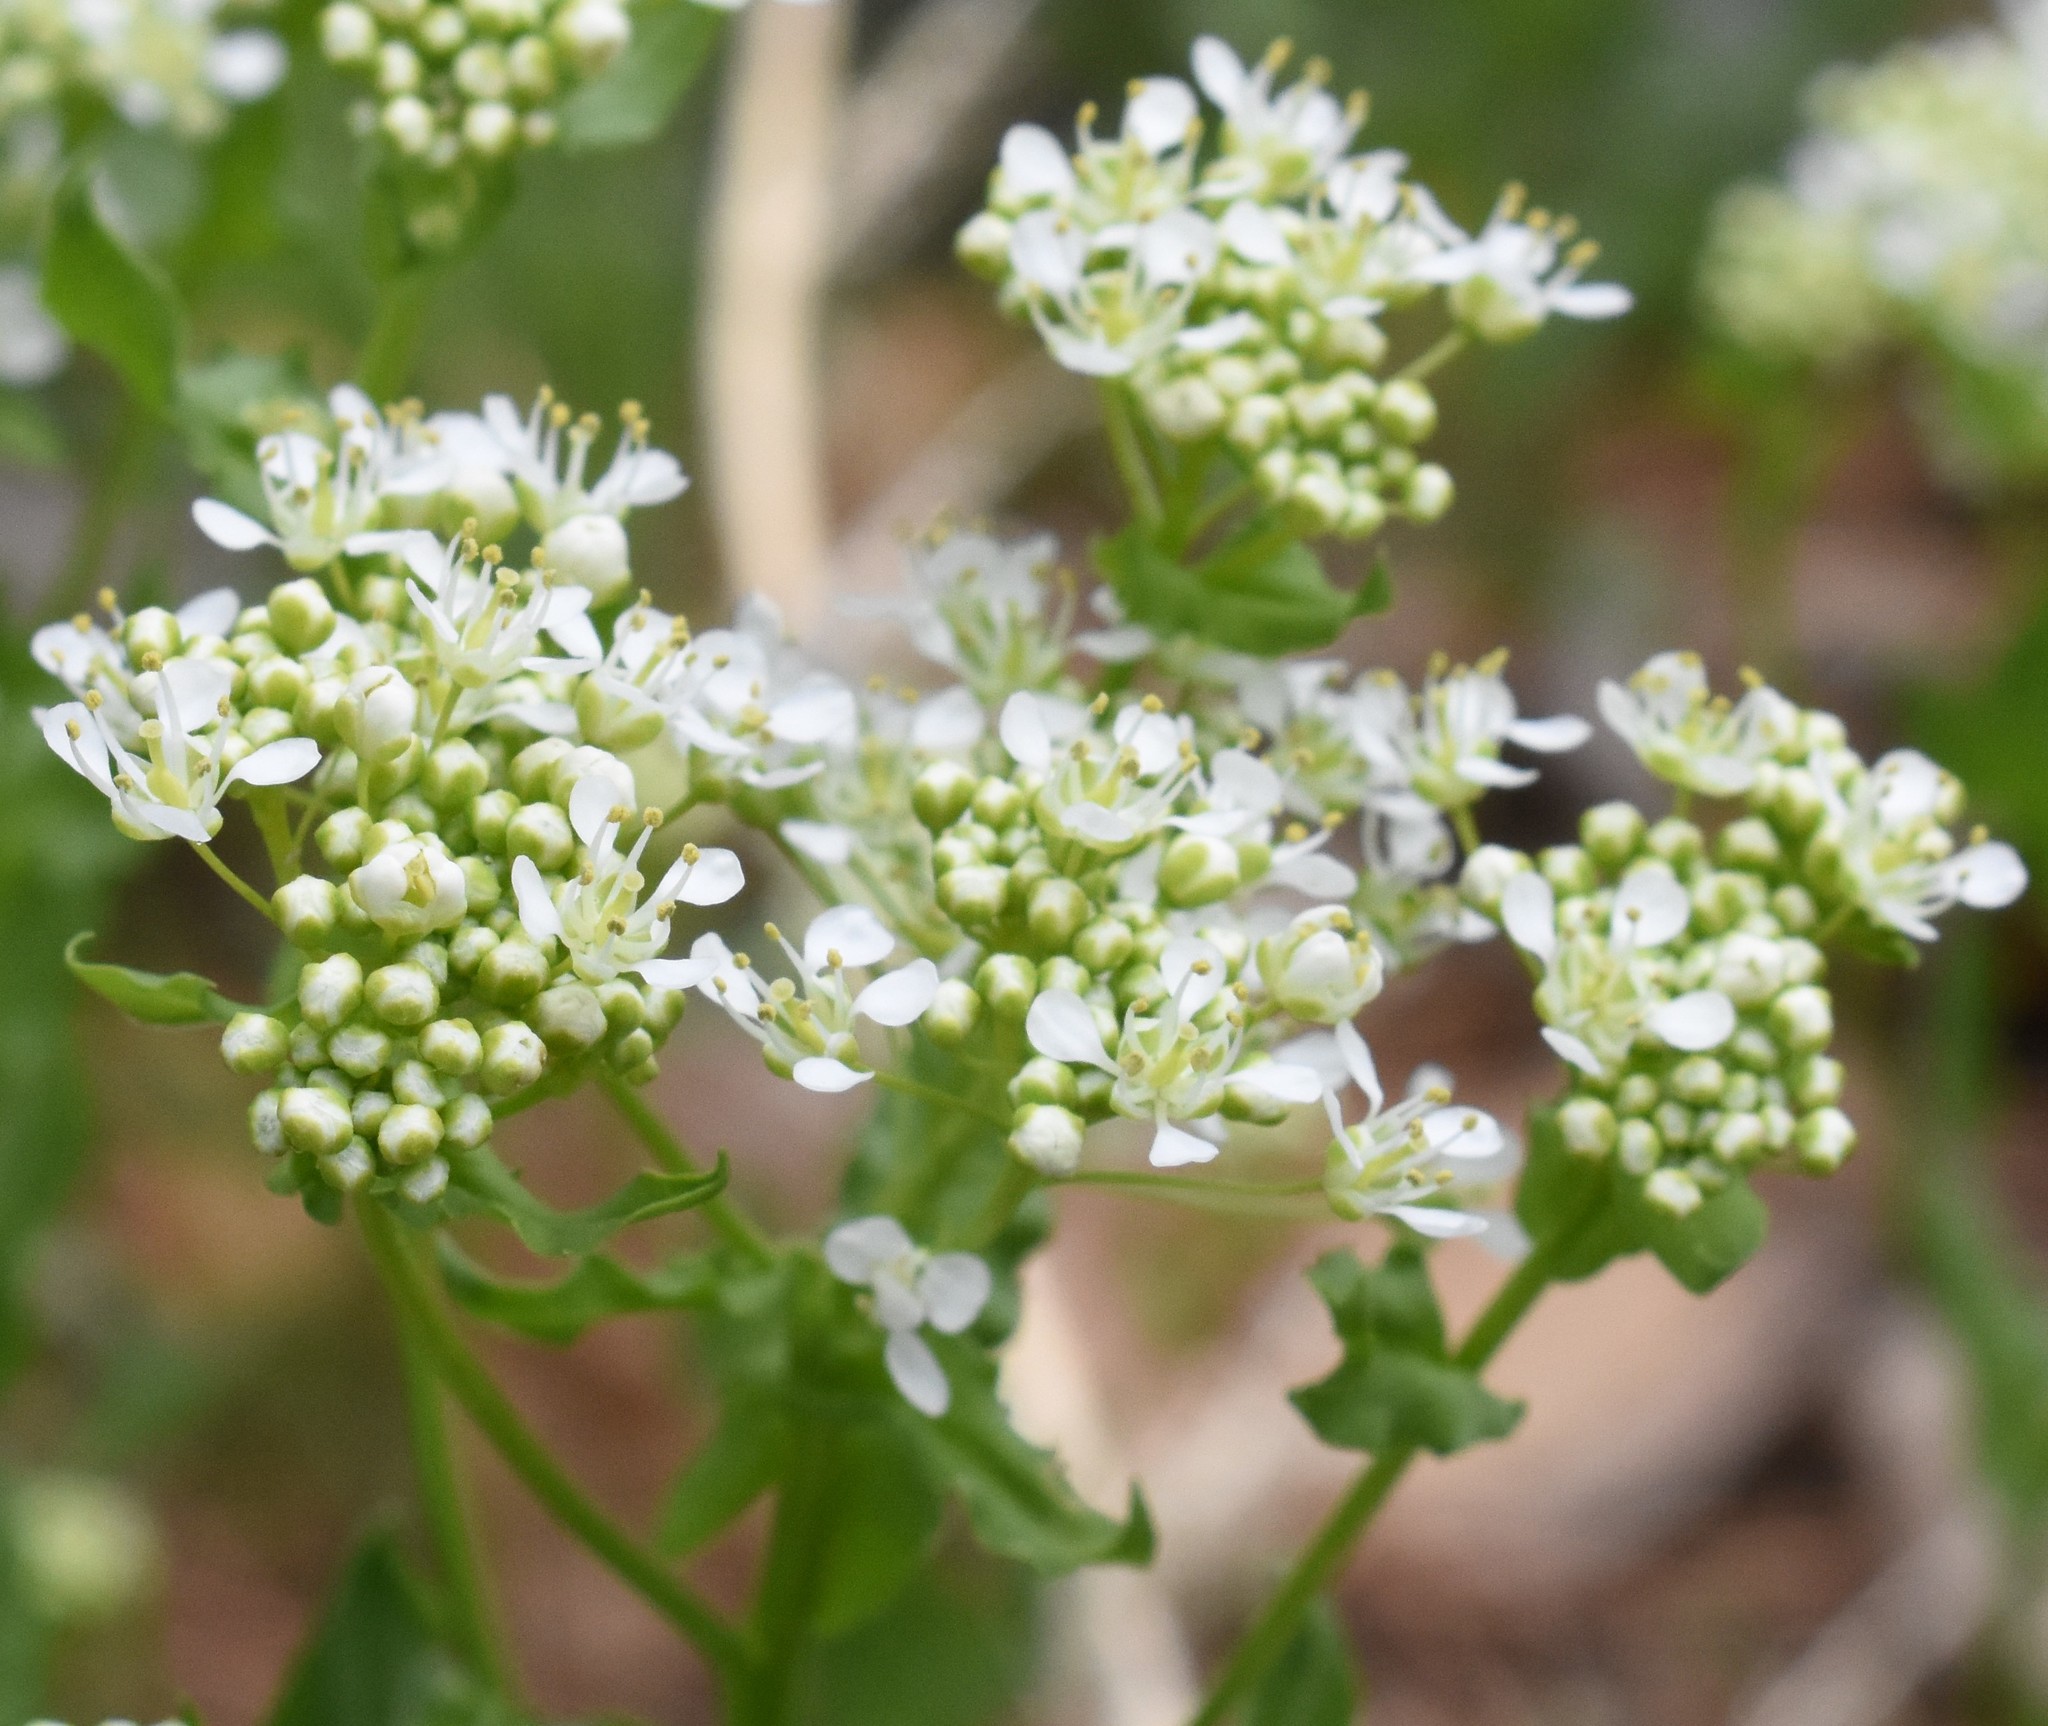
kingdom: Plantae
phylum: Tracheophyta
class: Magnoliopsida
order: Brassicales
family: Brassicaceae
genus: Lepidium
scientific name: Lepidium draba
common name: Hoary cress
